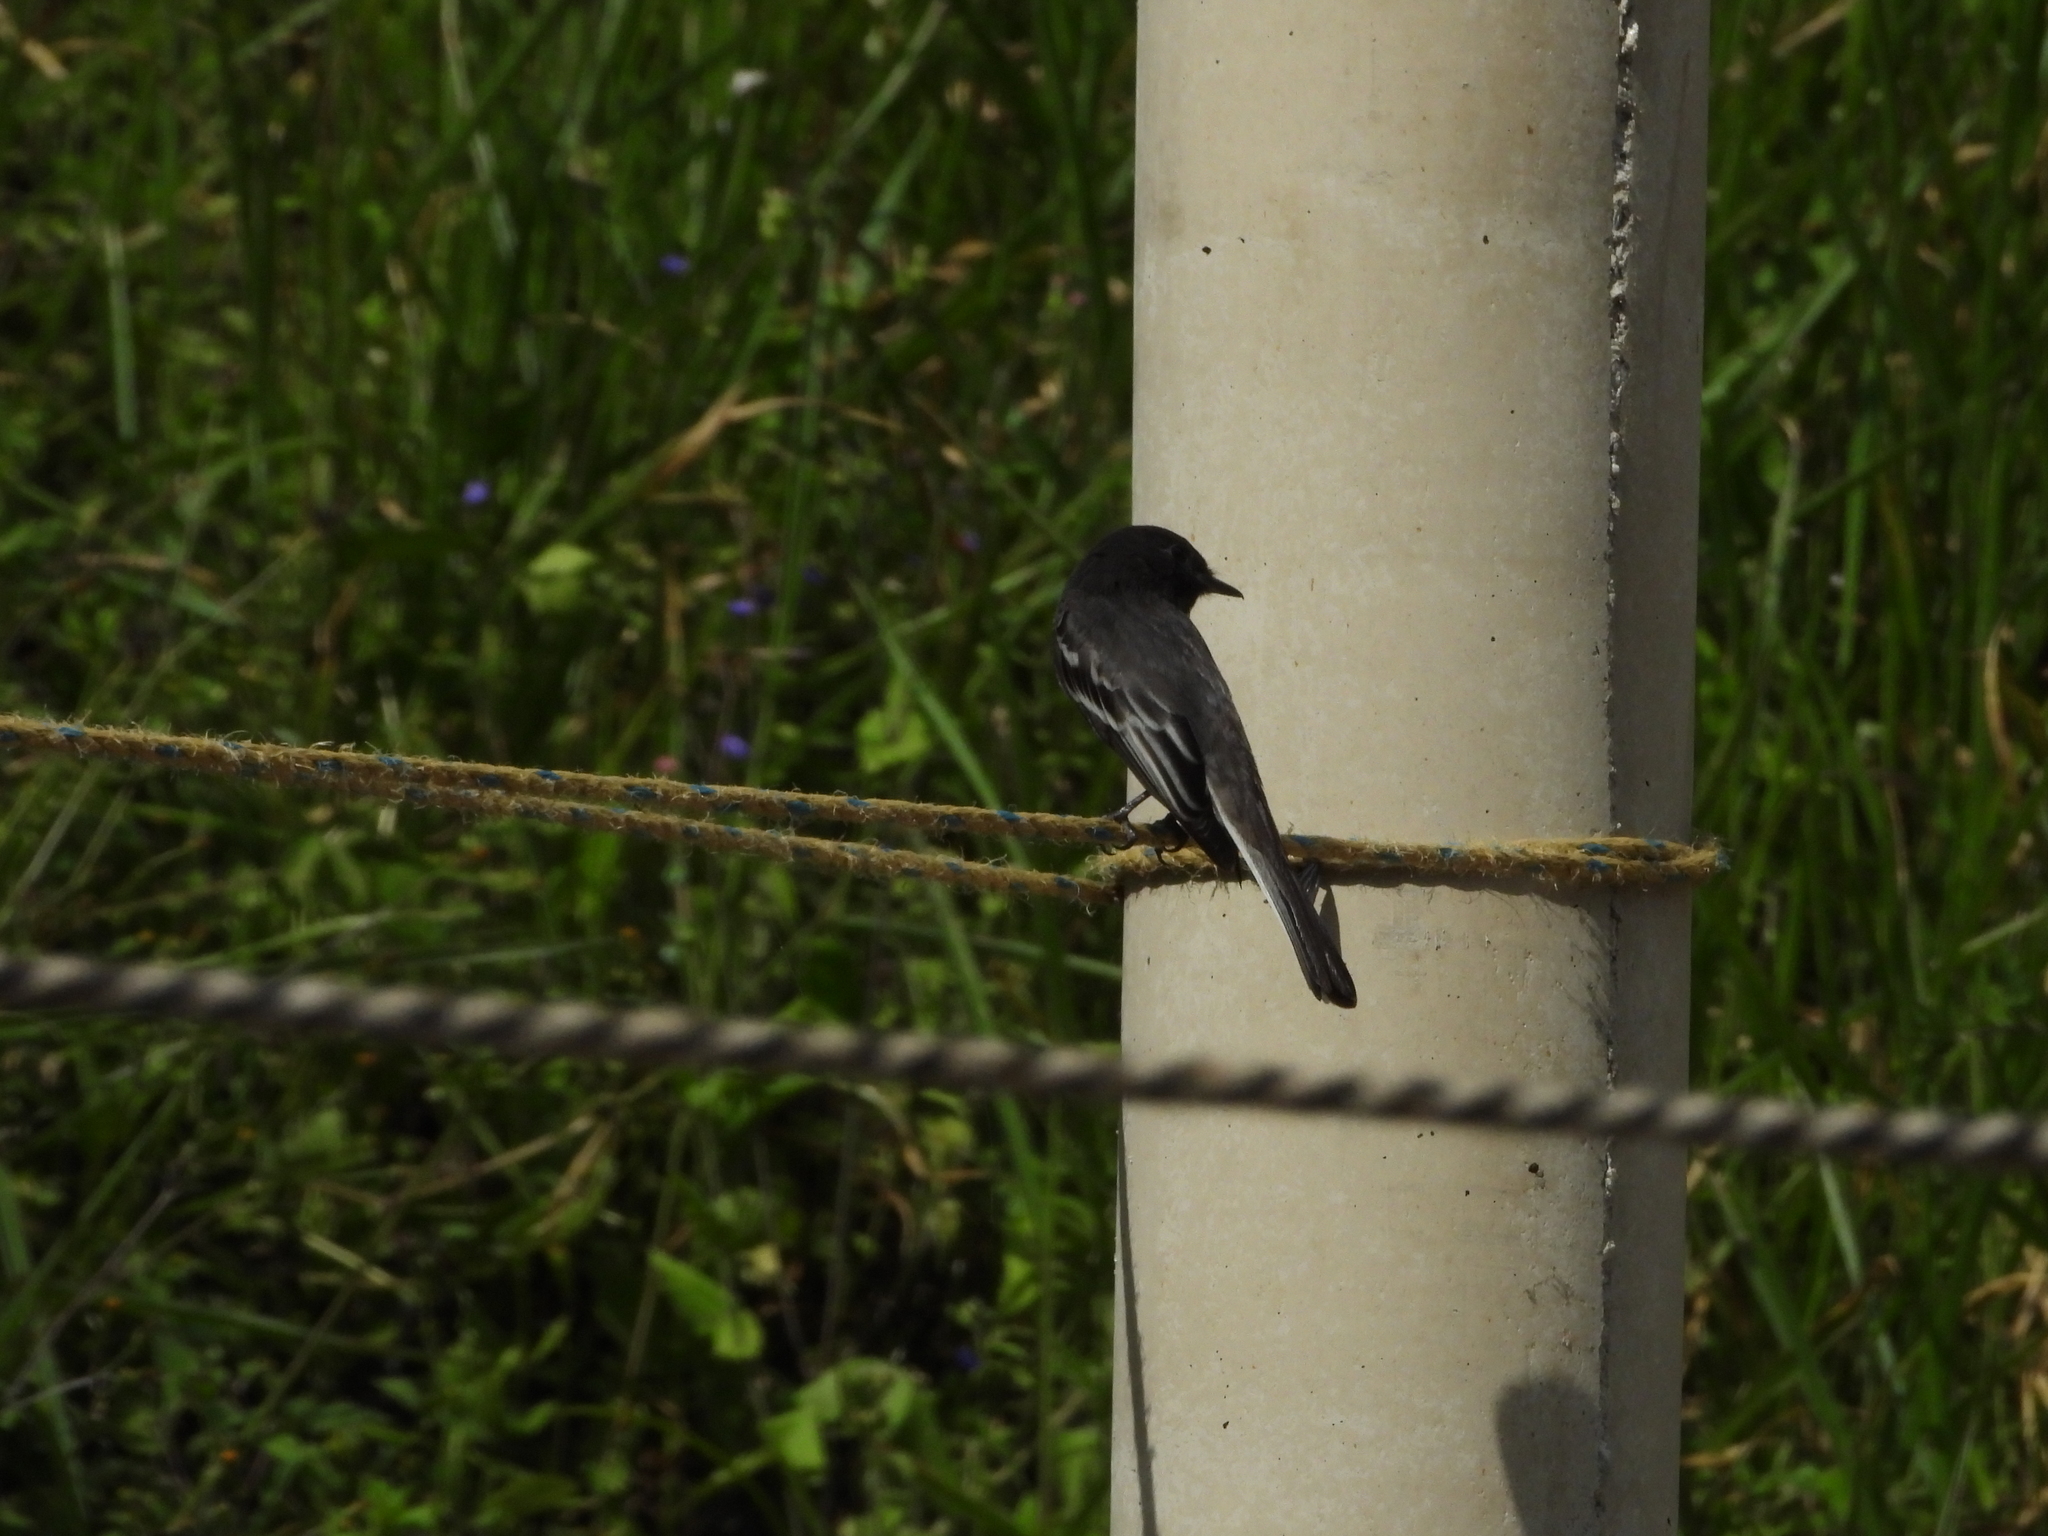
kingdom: Animalia
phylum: Chordata
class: Aves
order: Passeriformes
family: Tyrannidae
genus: Sayornis
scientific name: Sayornis nigricans
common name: Black phoebe
